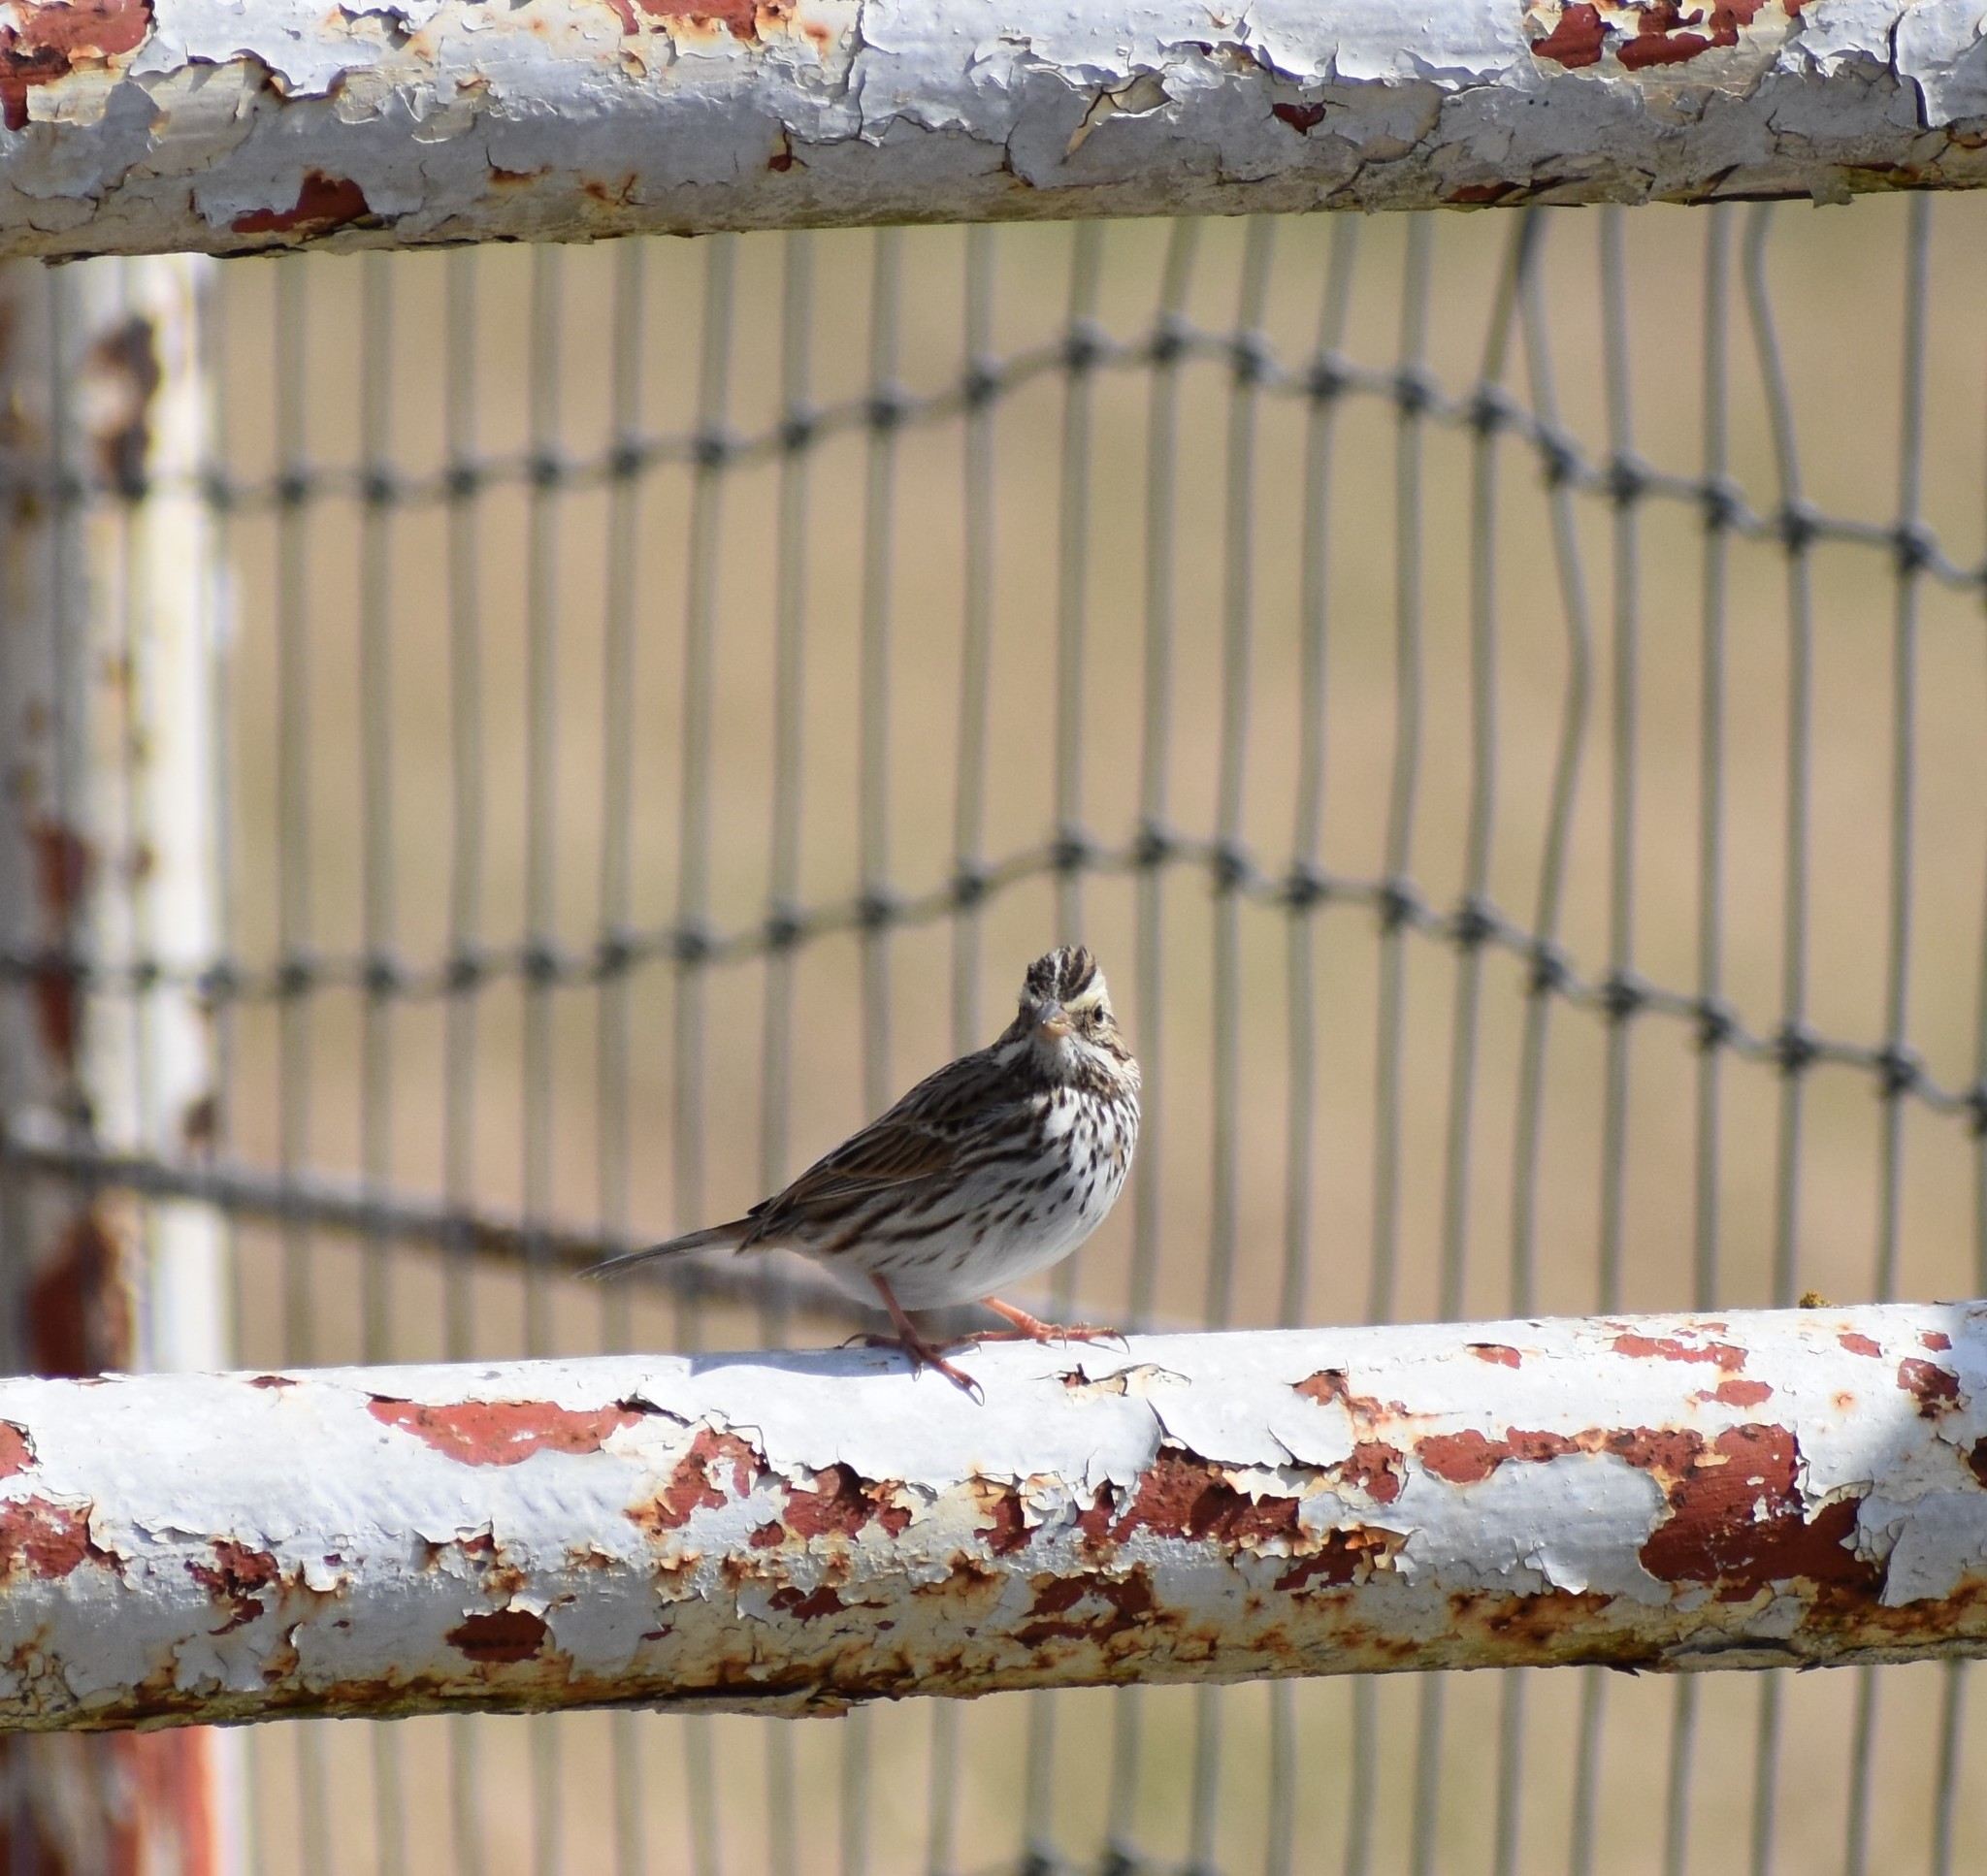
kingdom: Animalia
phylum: Chordata
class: Aves
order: Passeriformes
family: Passerellidae
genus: Passerculus
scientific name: Passerculus sandwichensis
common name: Savannah sparrow
